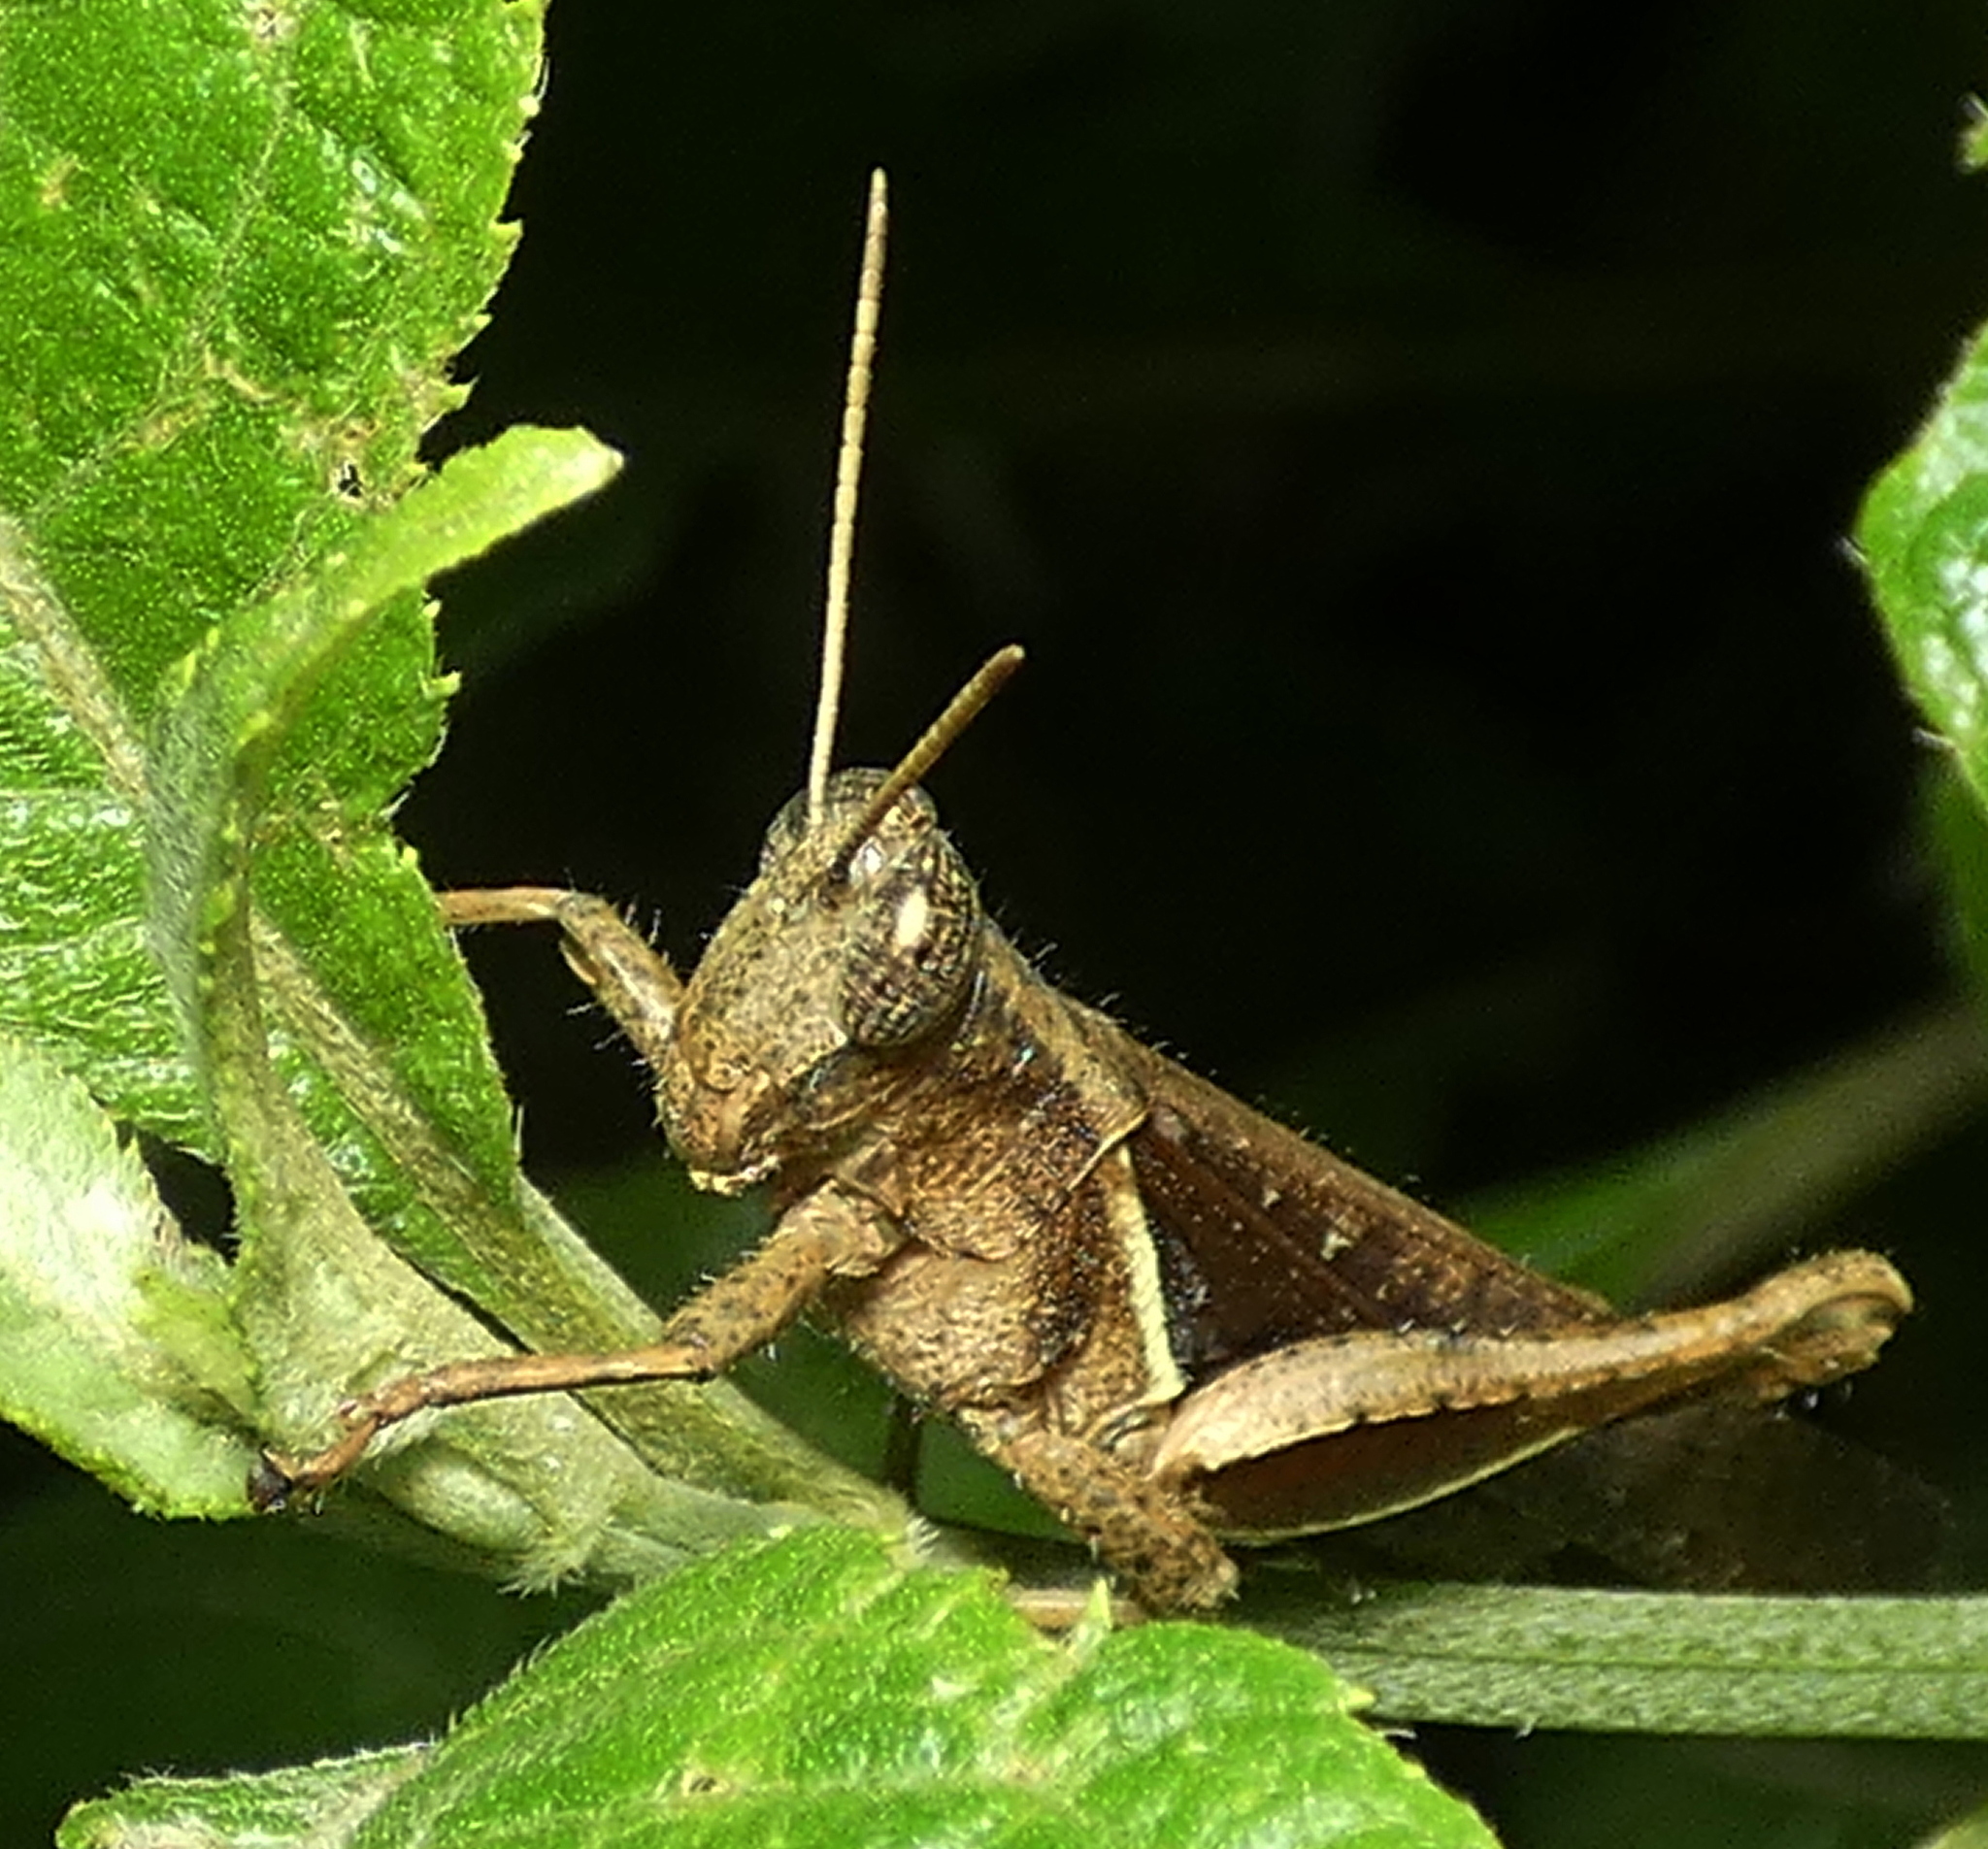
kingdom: Animalia
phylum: Arthropoda
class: Insecta
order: Orthoptera
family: Acrididae
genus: Abracris
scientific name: Abracris flavolineata
